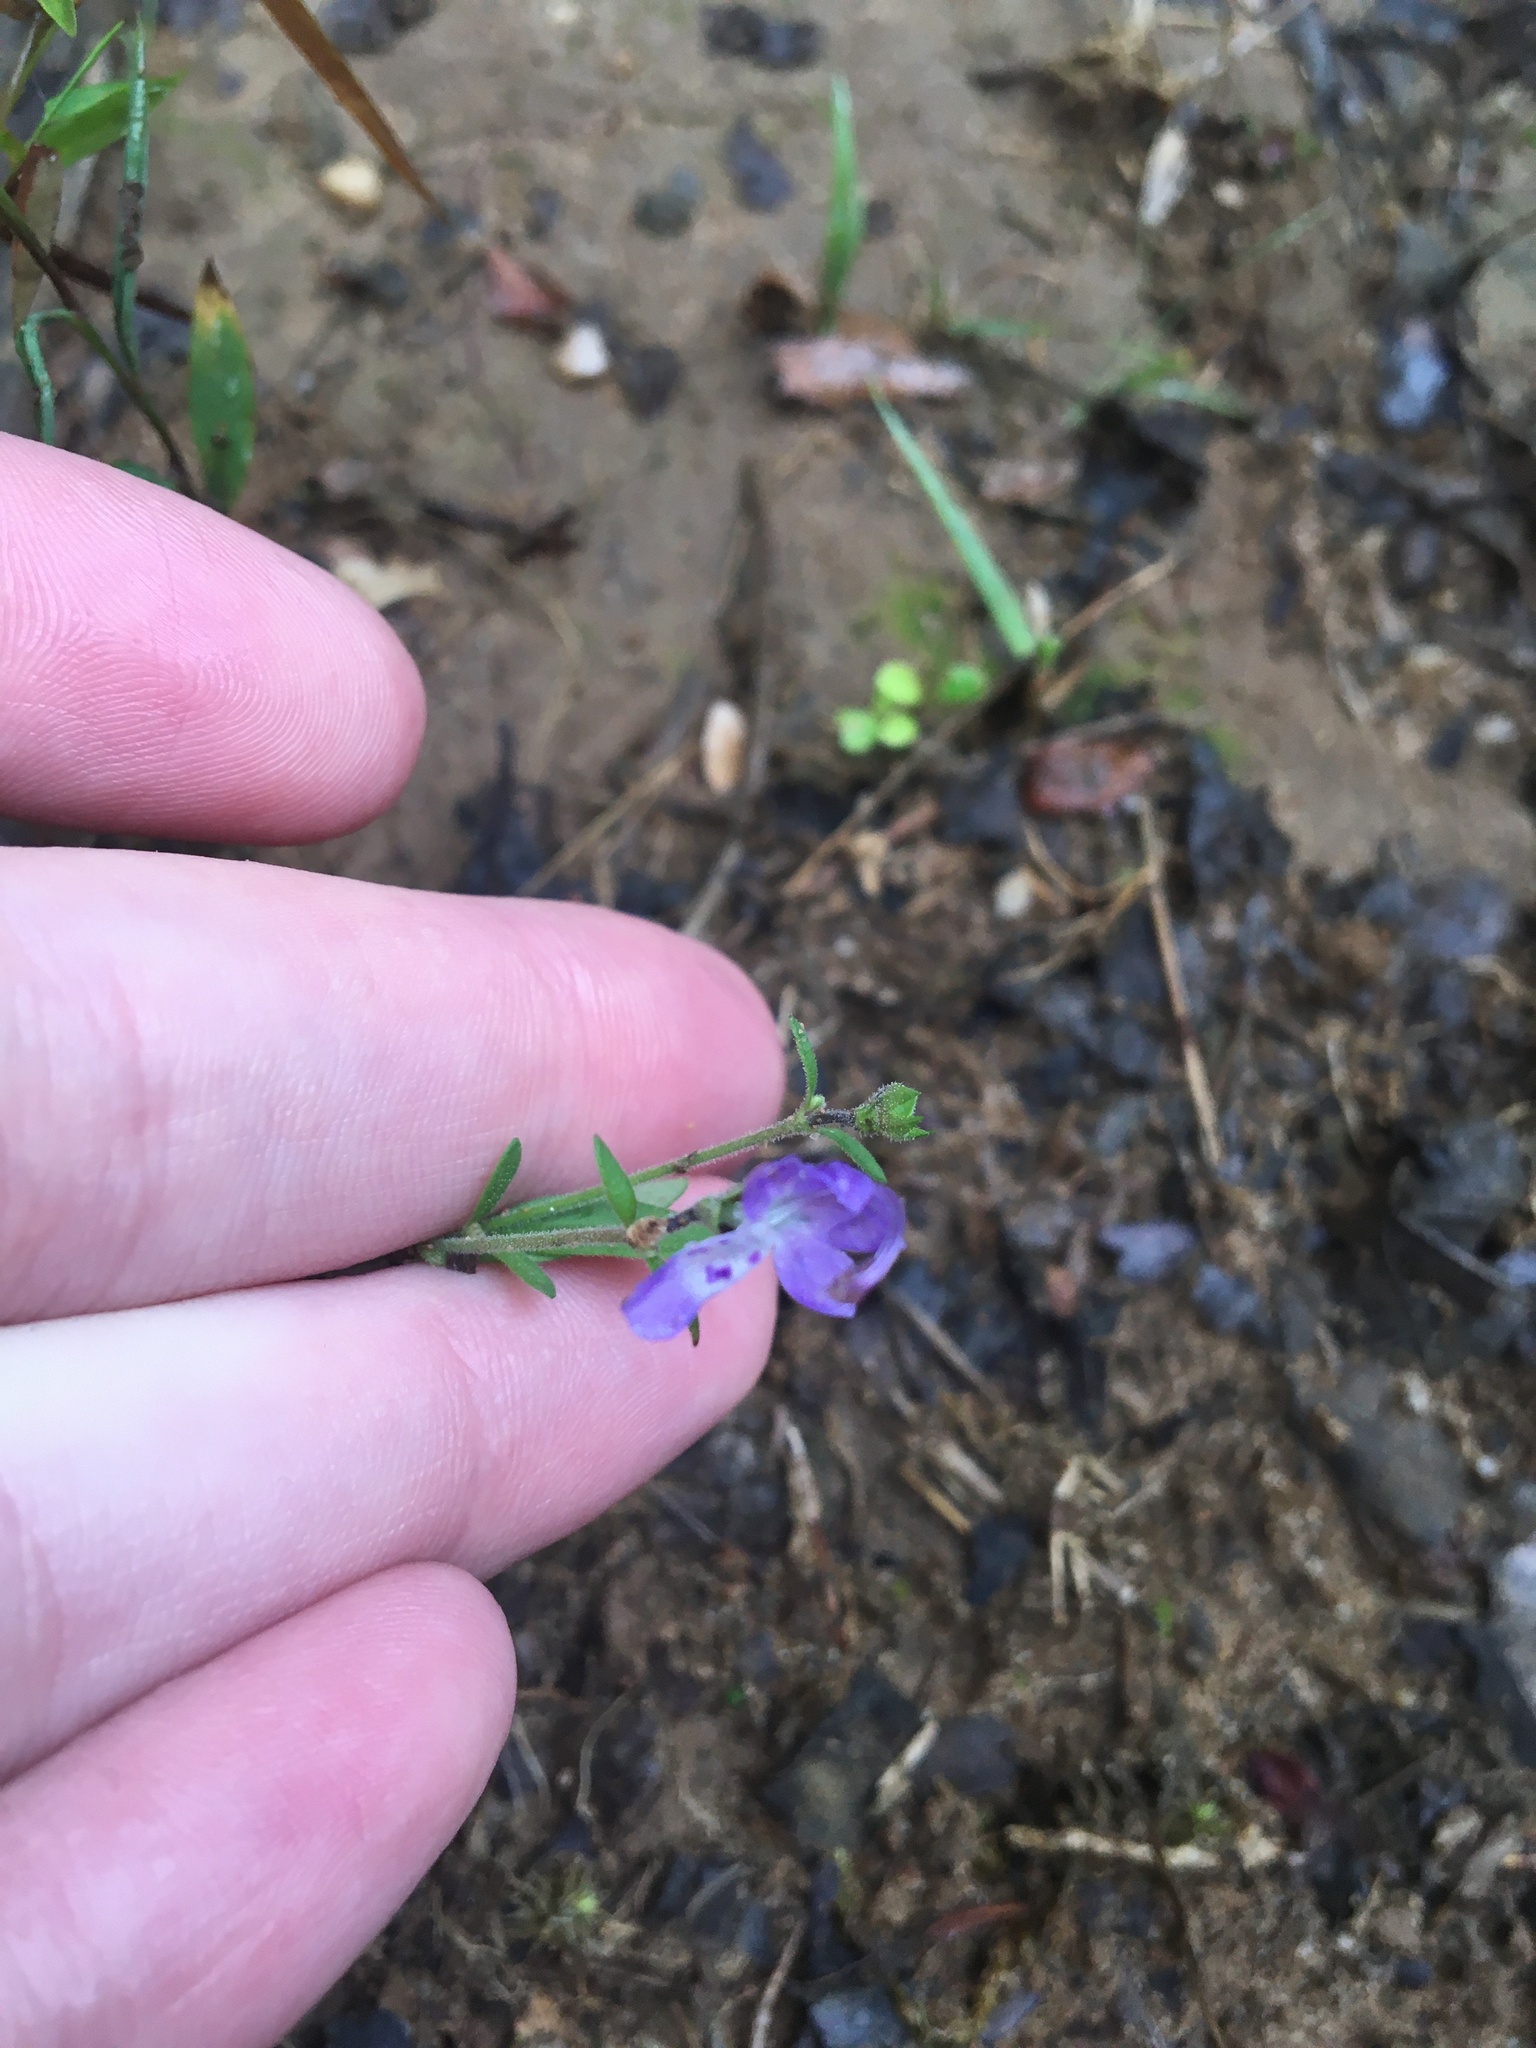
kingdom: Plantae
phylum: Tracheophyta
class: Magnoliopsida
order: Lamiales
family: Lamiaceae
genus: Trichostema
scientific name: Trichostema dichotomum
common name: Bastard pennyroyal
